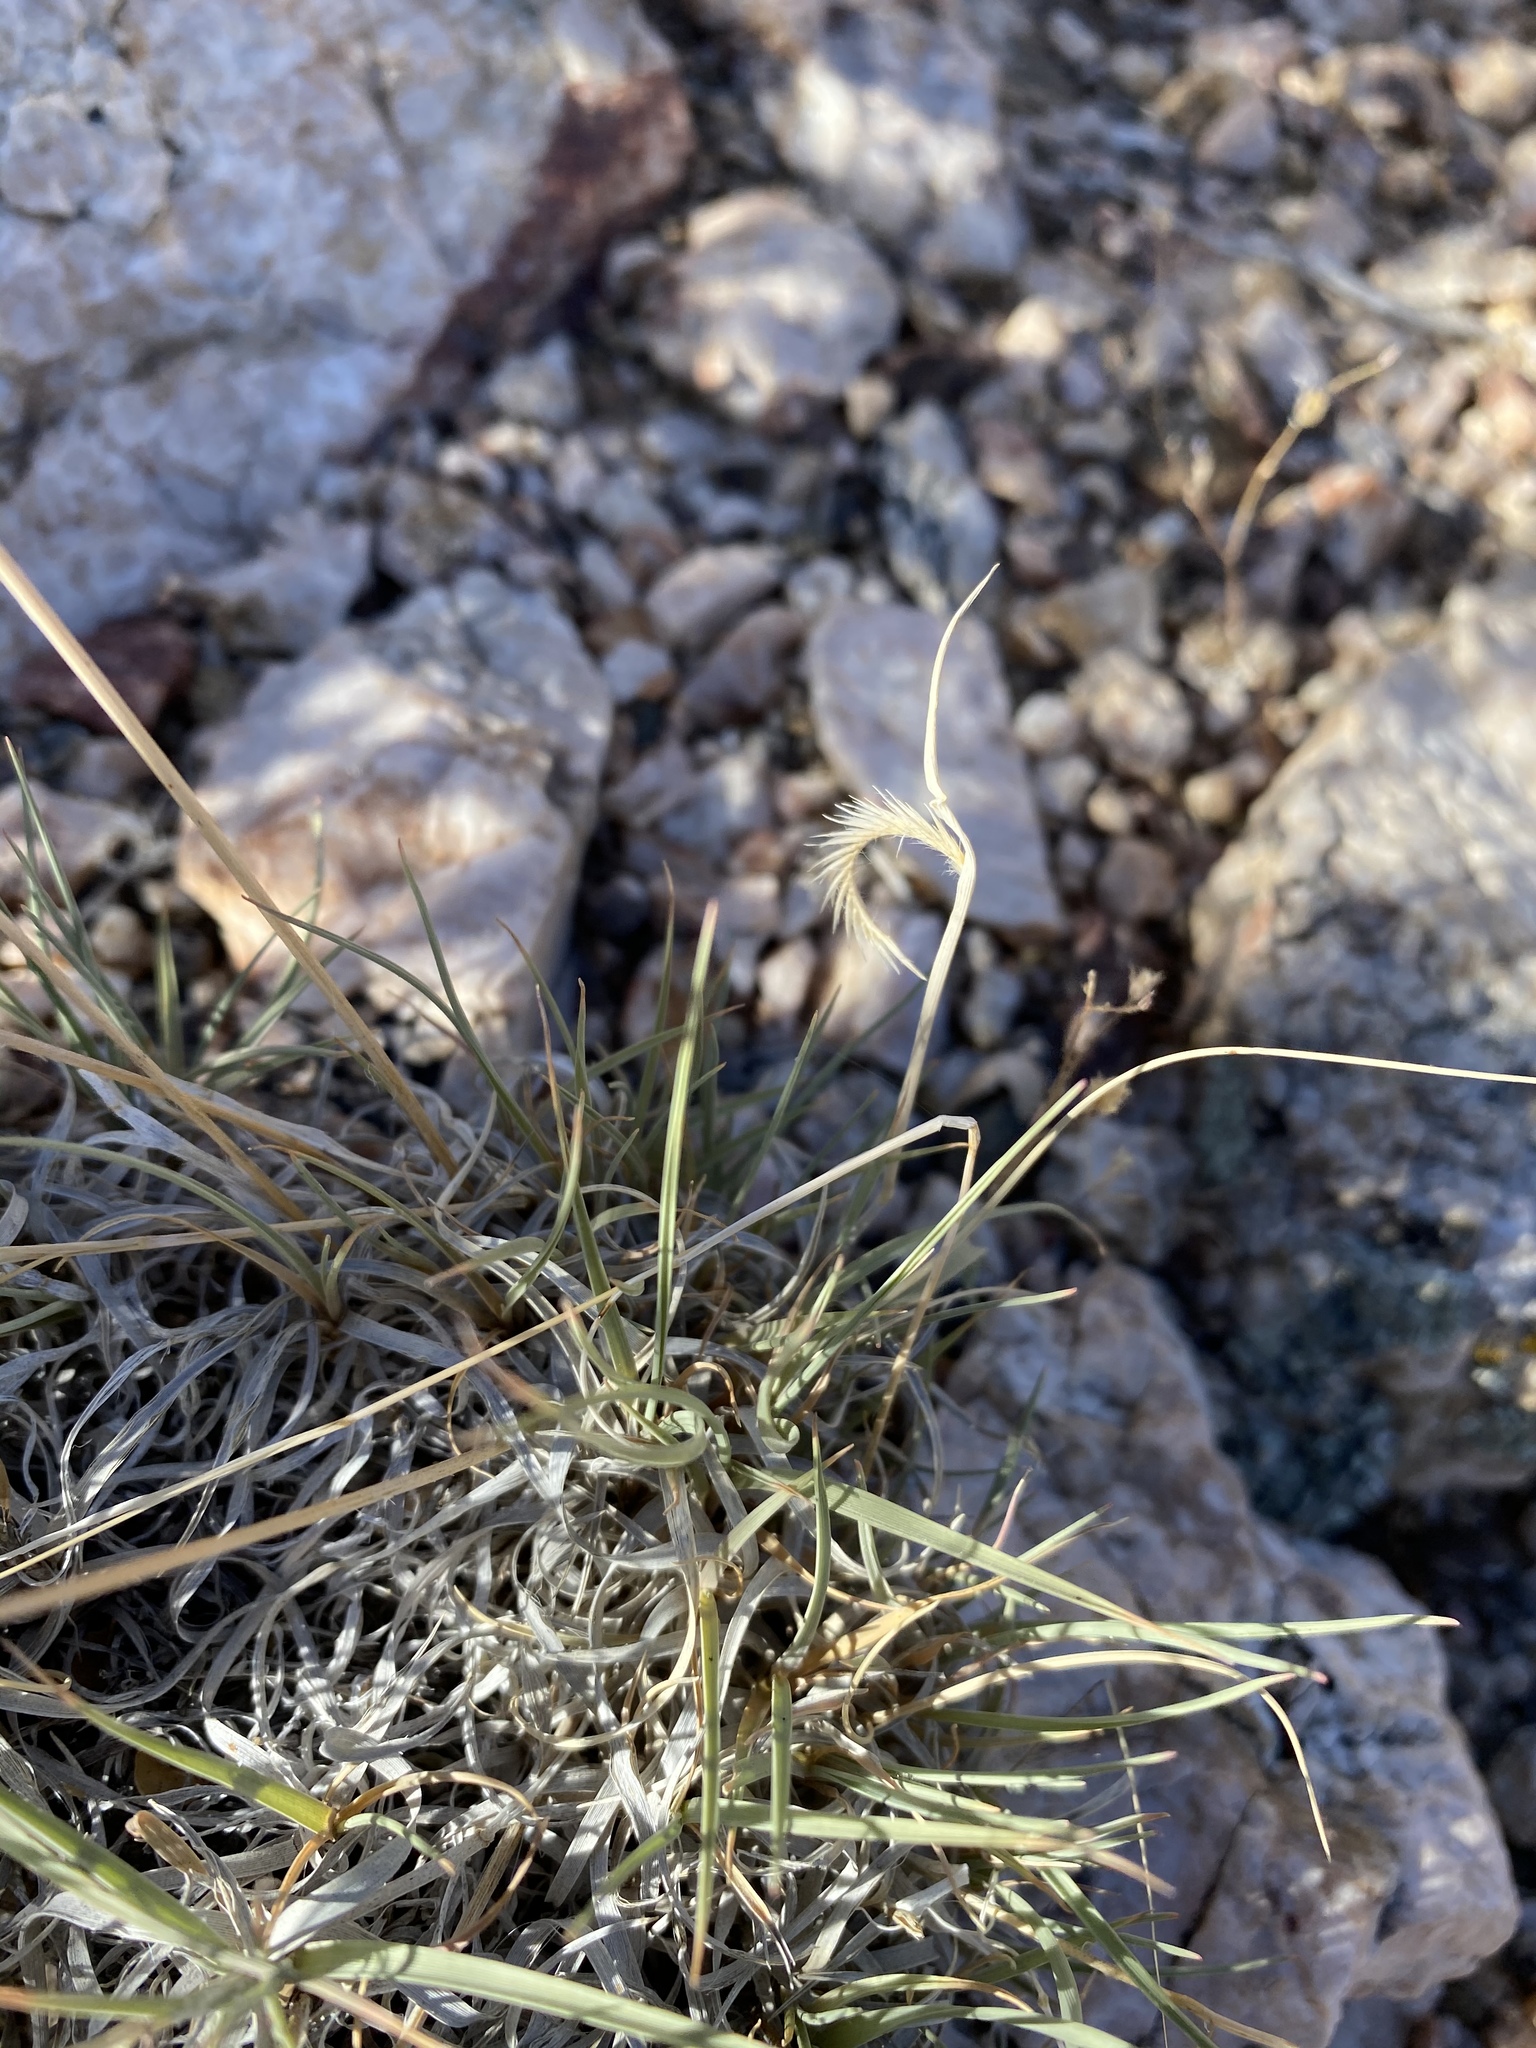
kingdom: Plantae
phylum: Tracheophyta
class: Liliopsida
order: Poales
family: Poaceae
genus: Bouteloua
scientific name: Bouteloua gracilis
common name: Blue grama
